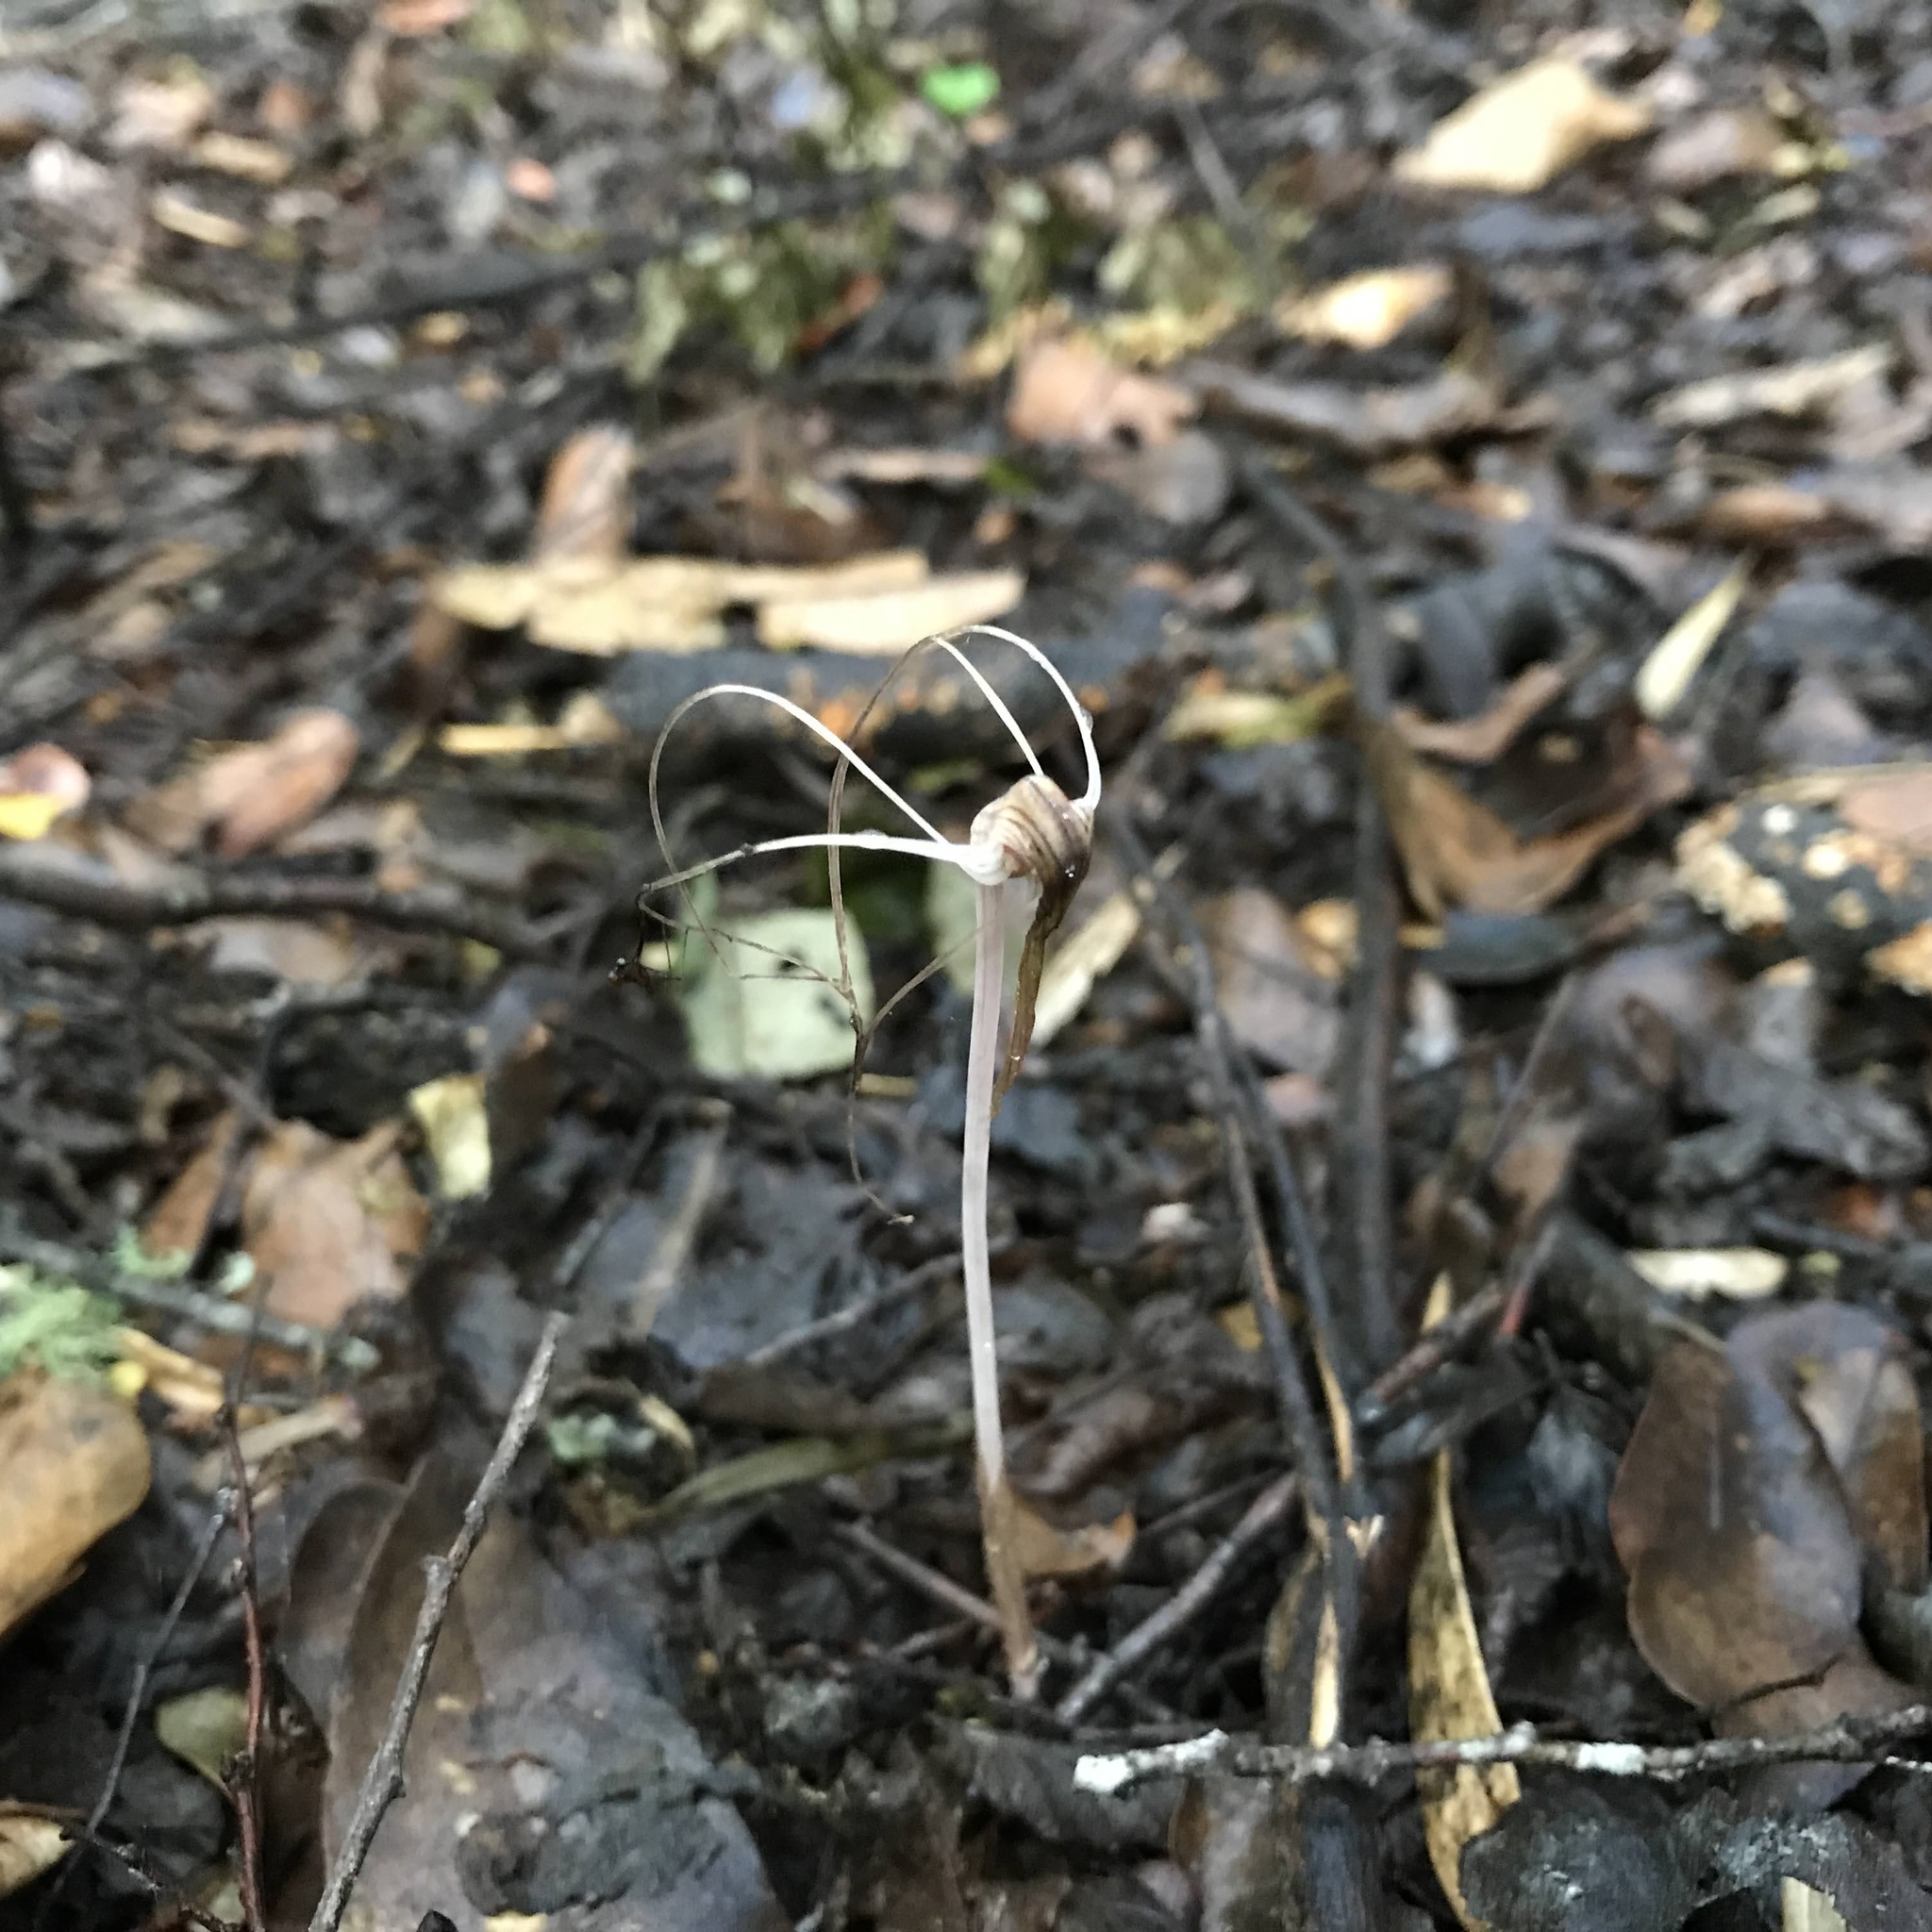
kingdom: Plantae
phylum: Tracheophyta
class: Liliopsida
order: Liliales
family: Corsiaceae
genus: Arachnitis
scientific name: Arachnitis uniflora
